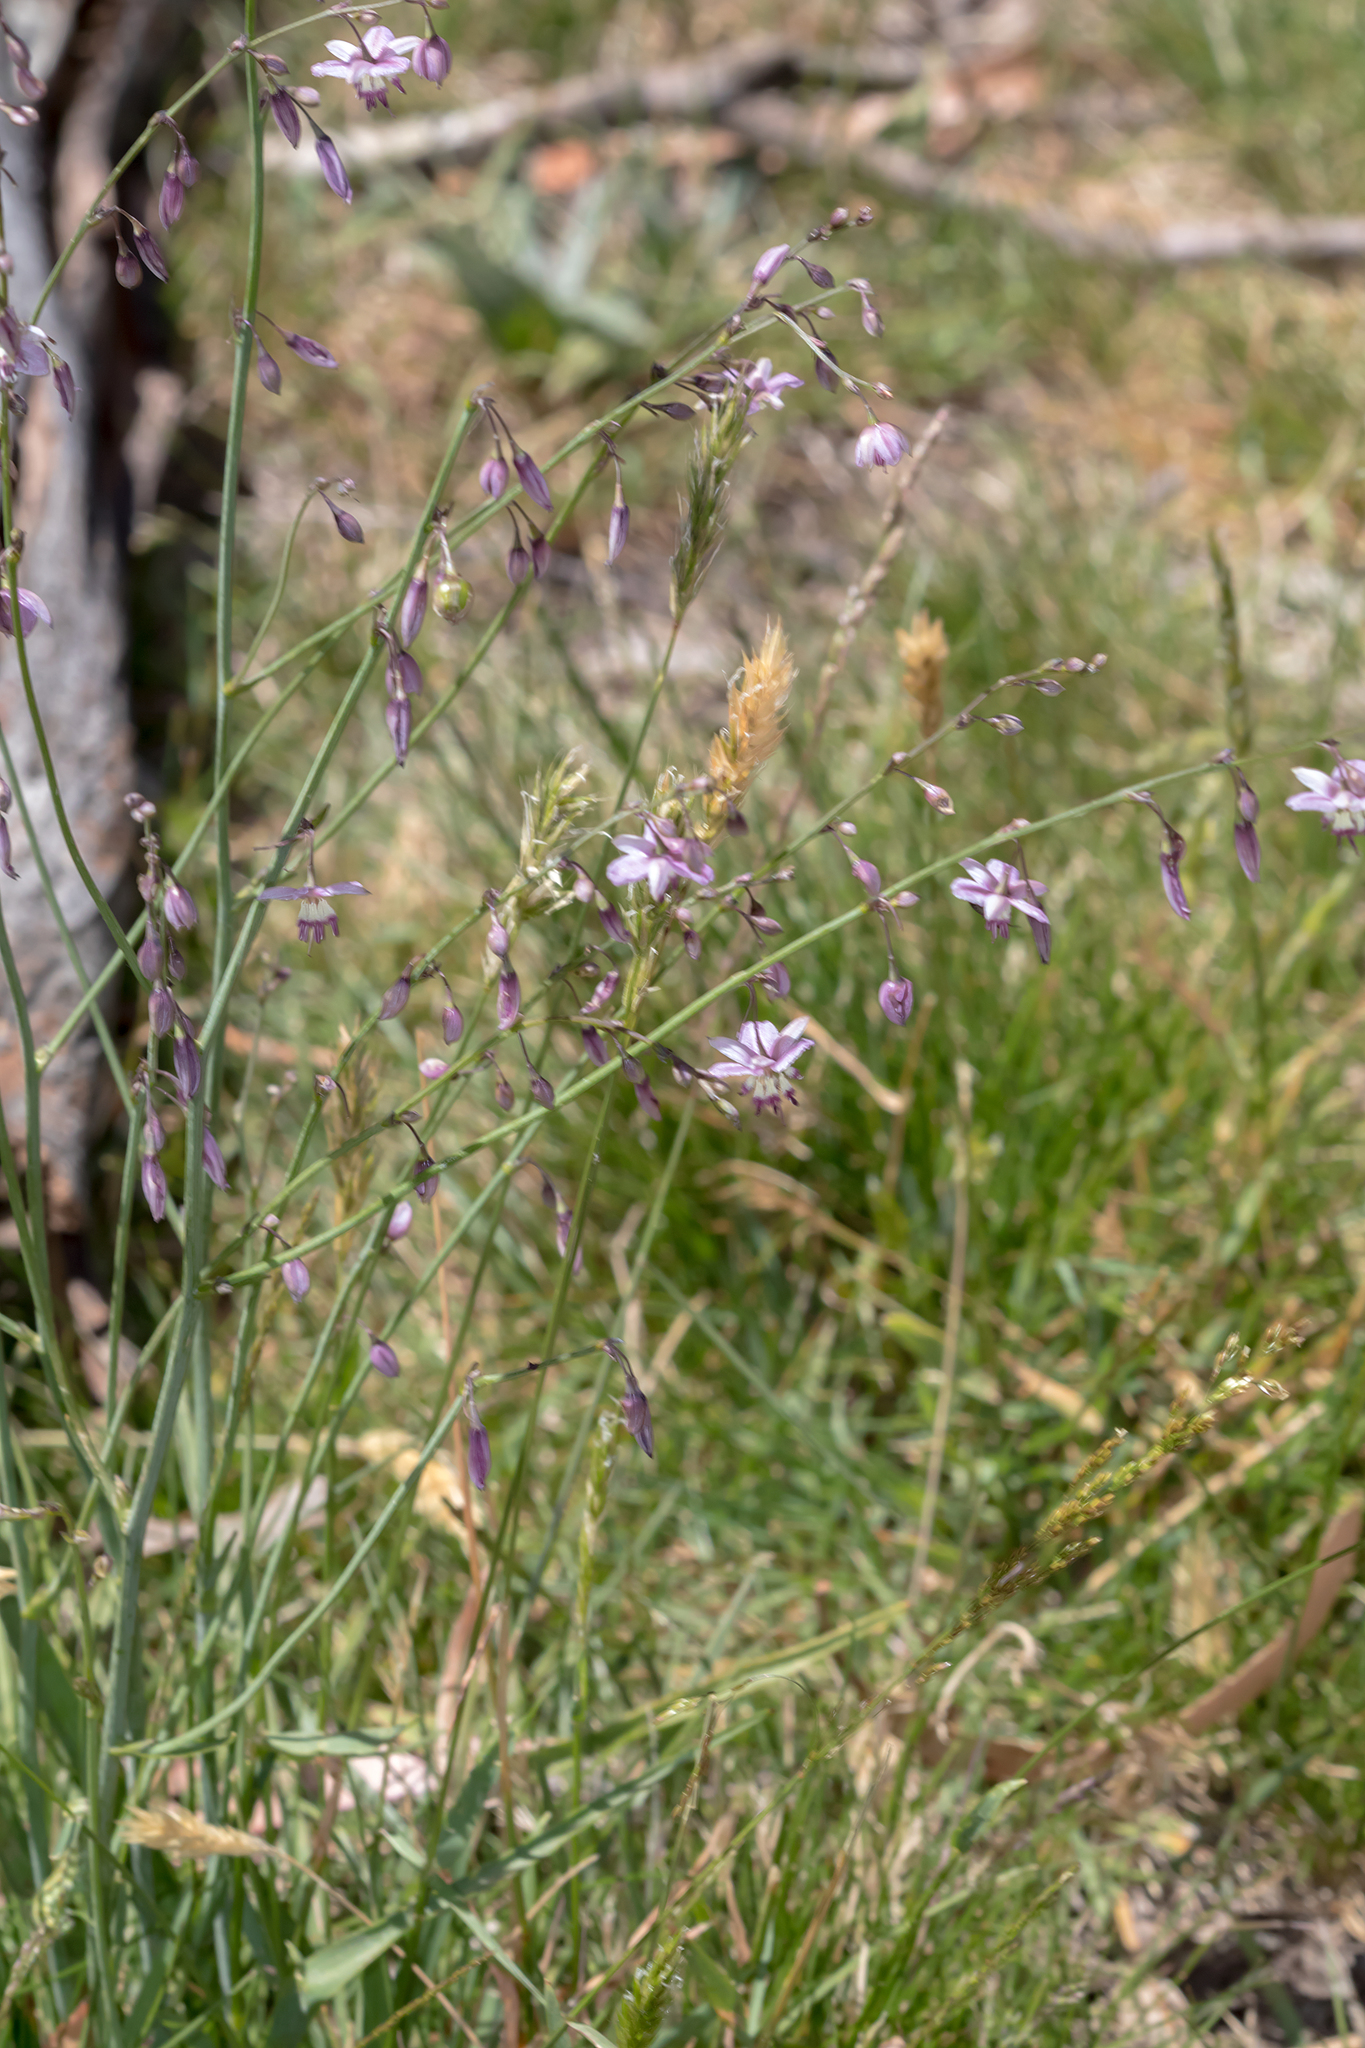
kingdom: Plantae
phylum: Tracheophyta
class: Liliopsida
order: Asparagales
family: Asparagaceae
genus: Arthropodium
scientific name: Arthropodium milleflorum
